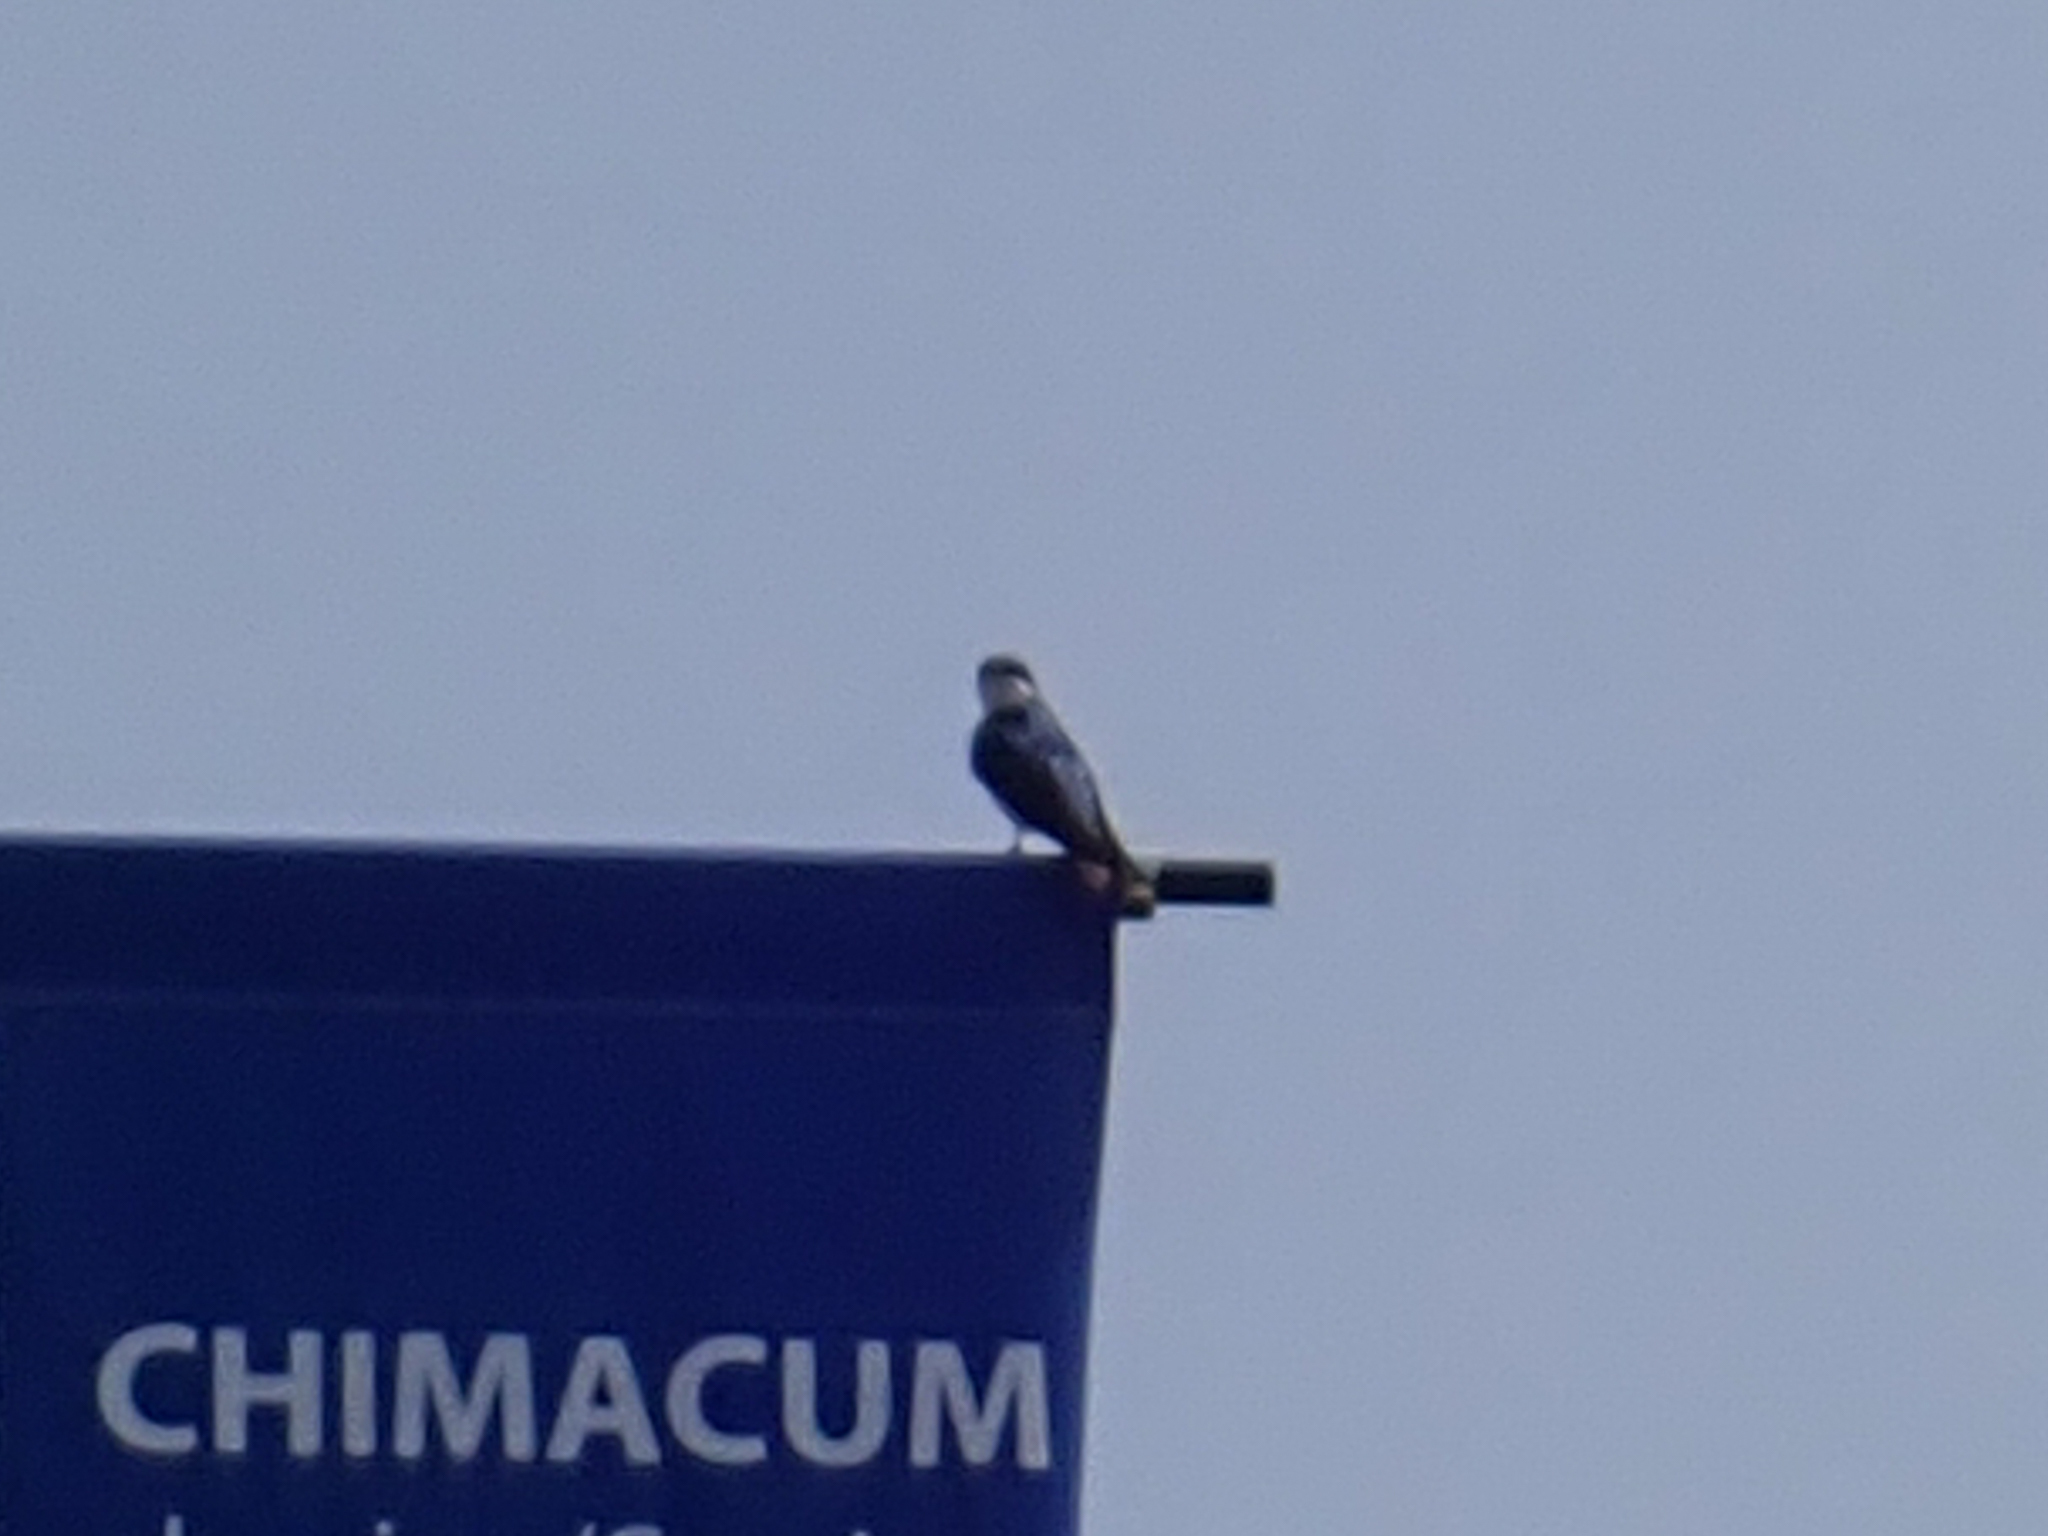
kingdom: Animalia
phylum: Chordata
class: Aves
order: Passeriformes
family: Hirundinidae
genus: Tachycineta
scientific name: Tachycineta bicolor
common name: Tree swallow
